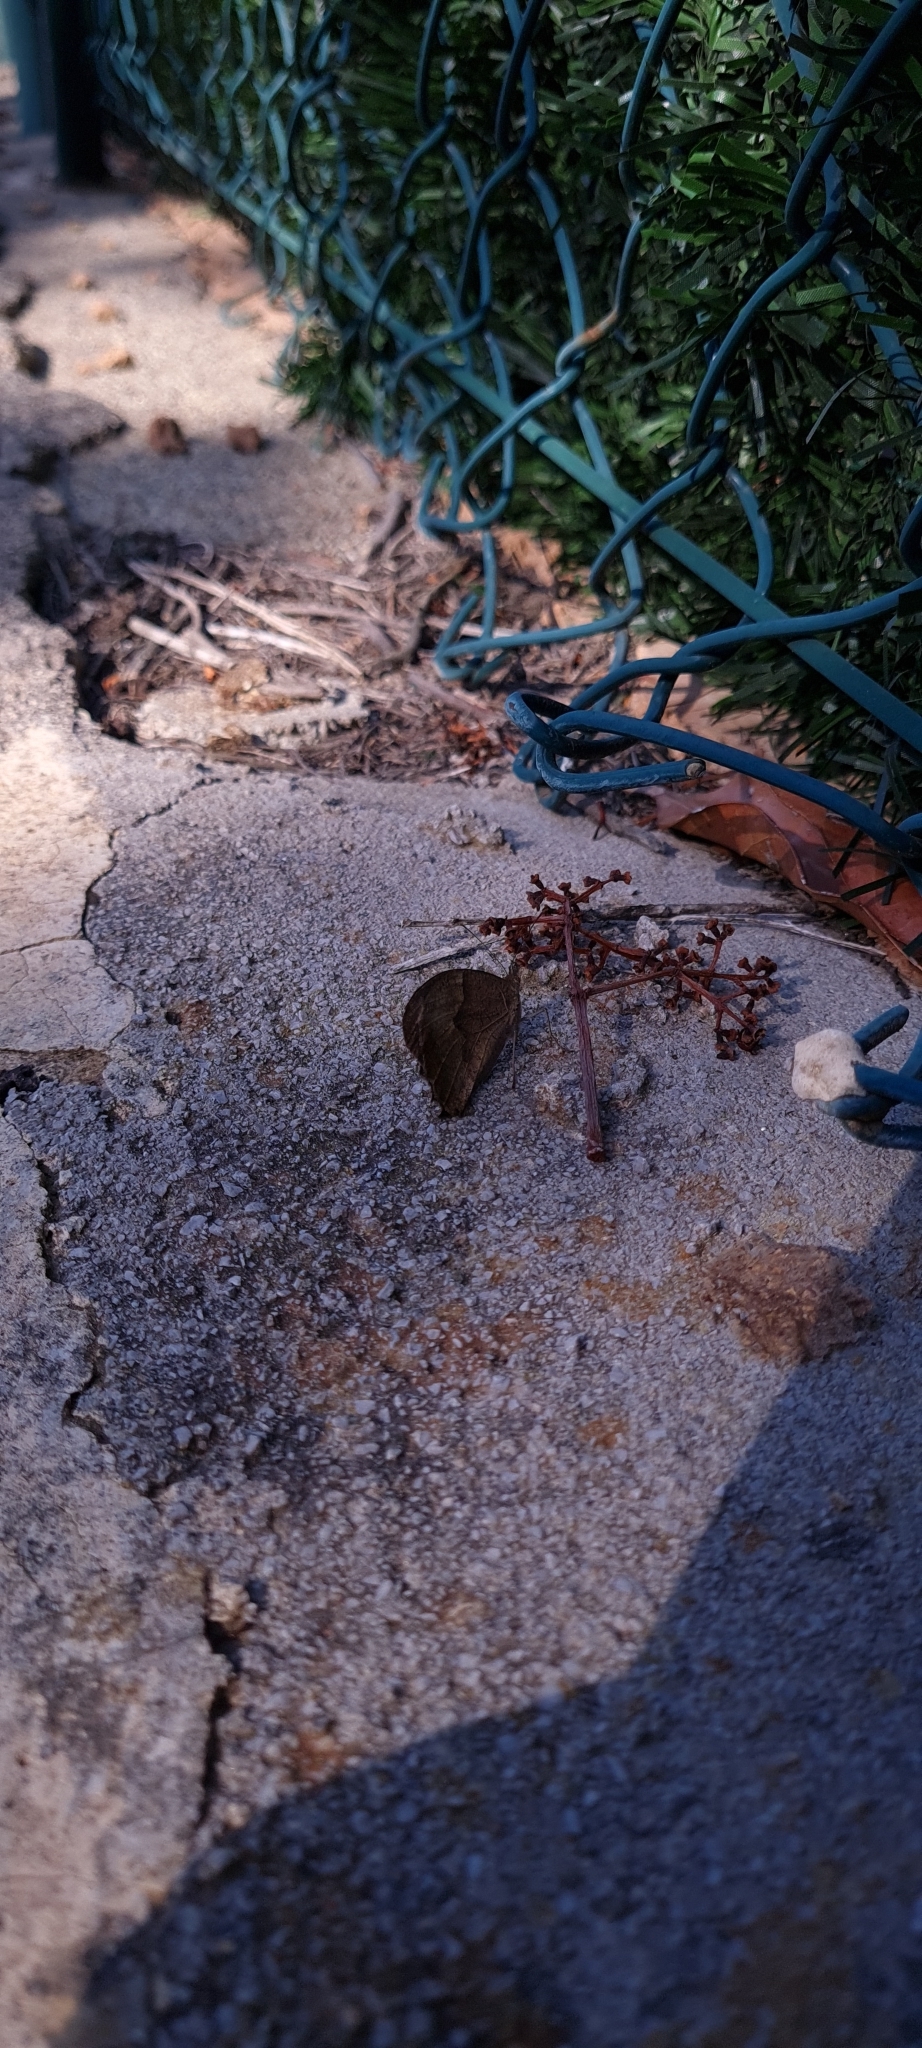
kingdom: Animalia
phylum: Arthropoda
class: Insecta
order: Lepidoptera
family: Nymphalidae
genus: Hipparchia
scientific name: Hipparchia statilinus
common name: Tree grayling
